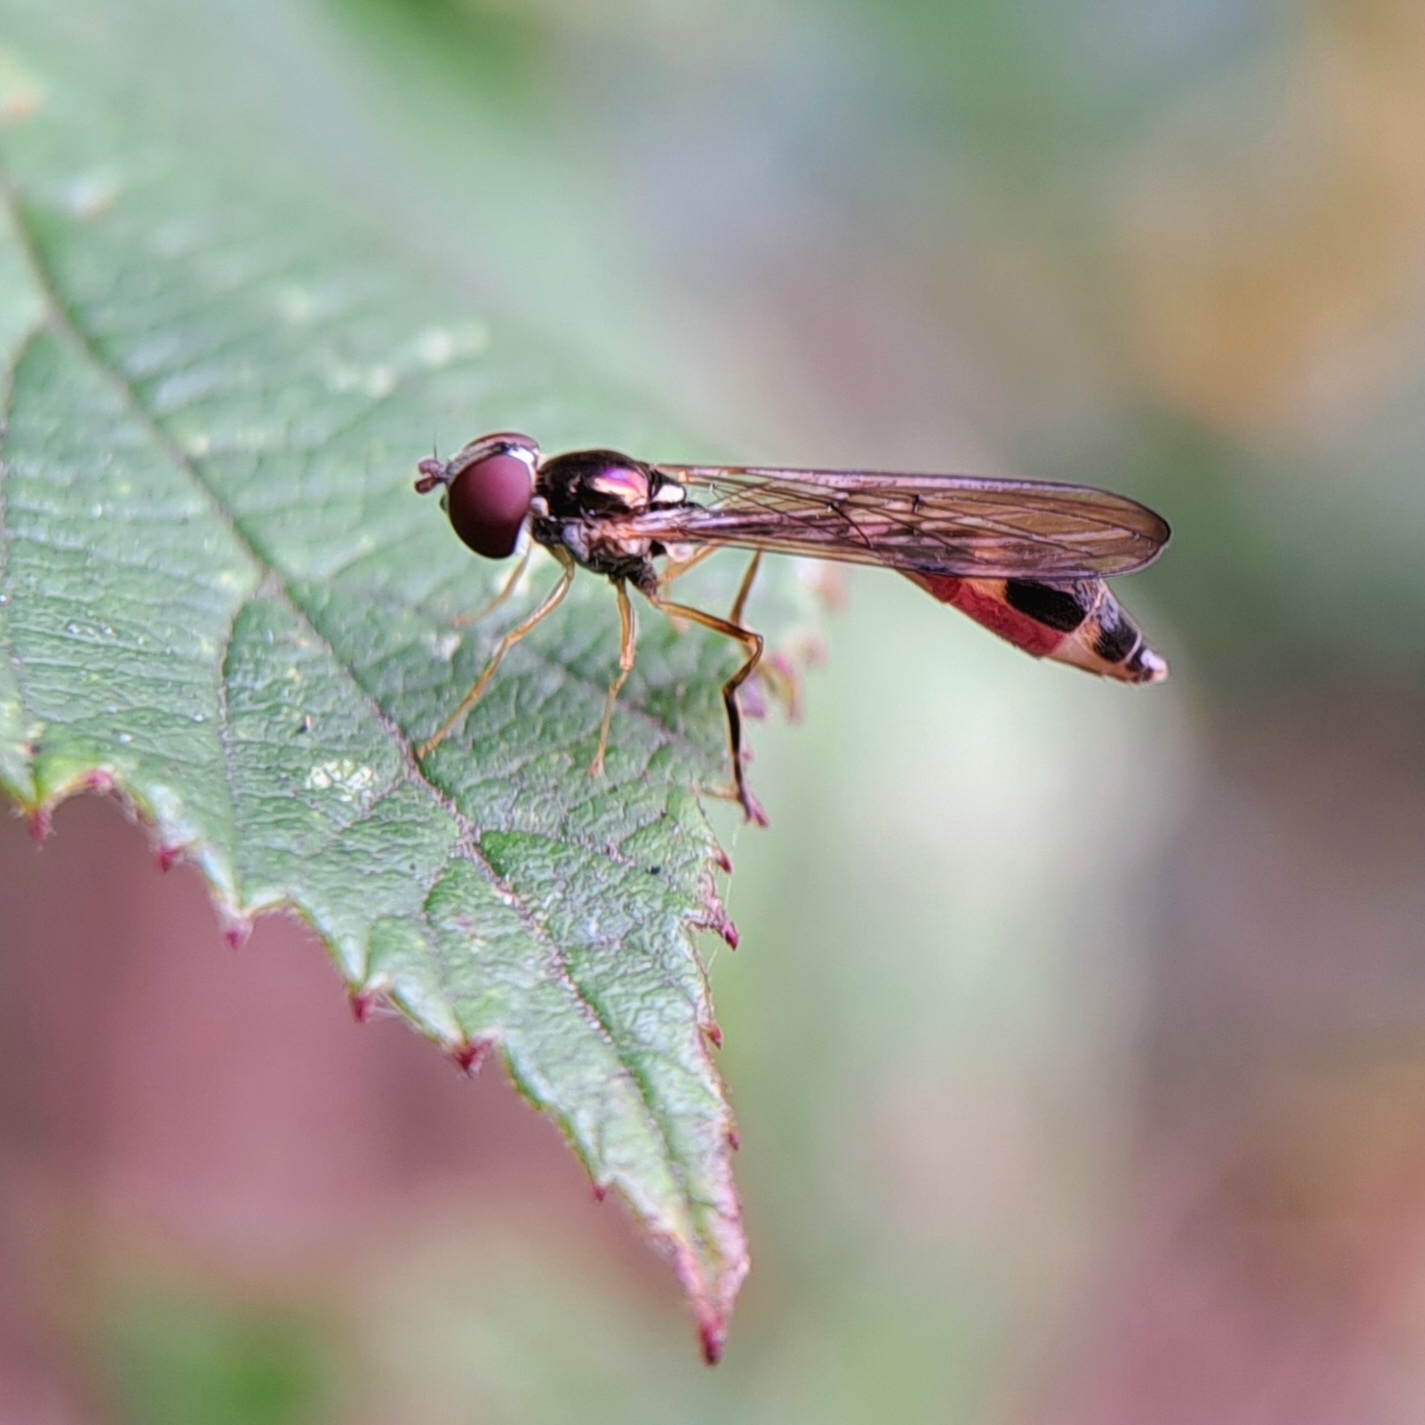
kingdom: Animalia
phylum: Arthropoda
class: Insecta
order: Diptera
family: Syrphidae
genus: Baccha
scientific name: Baccha elongata
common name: Common dainty
